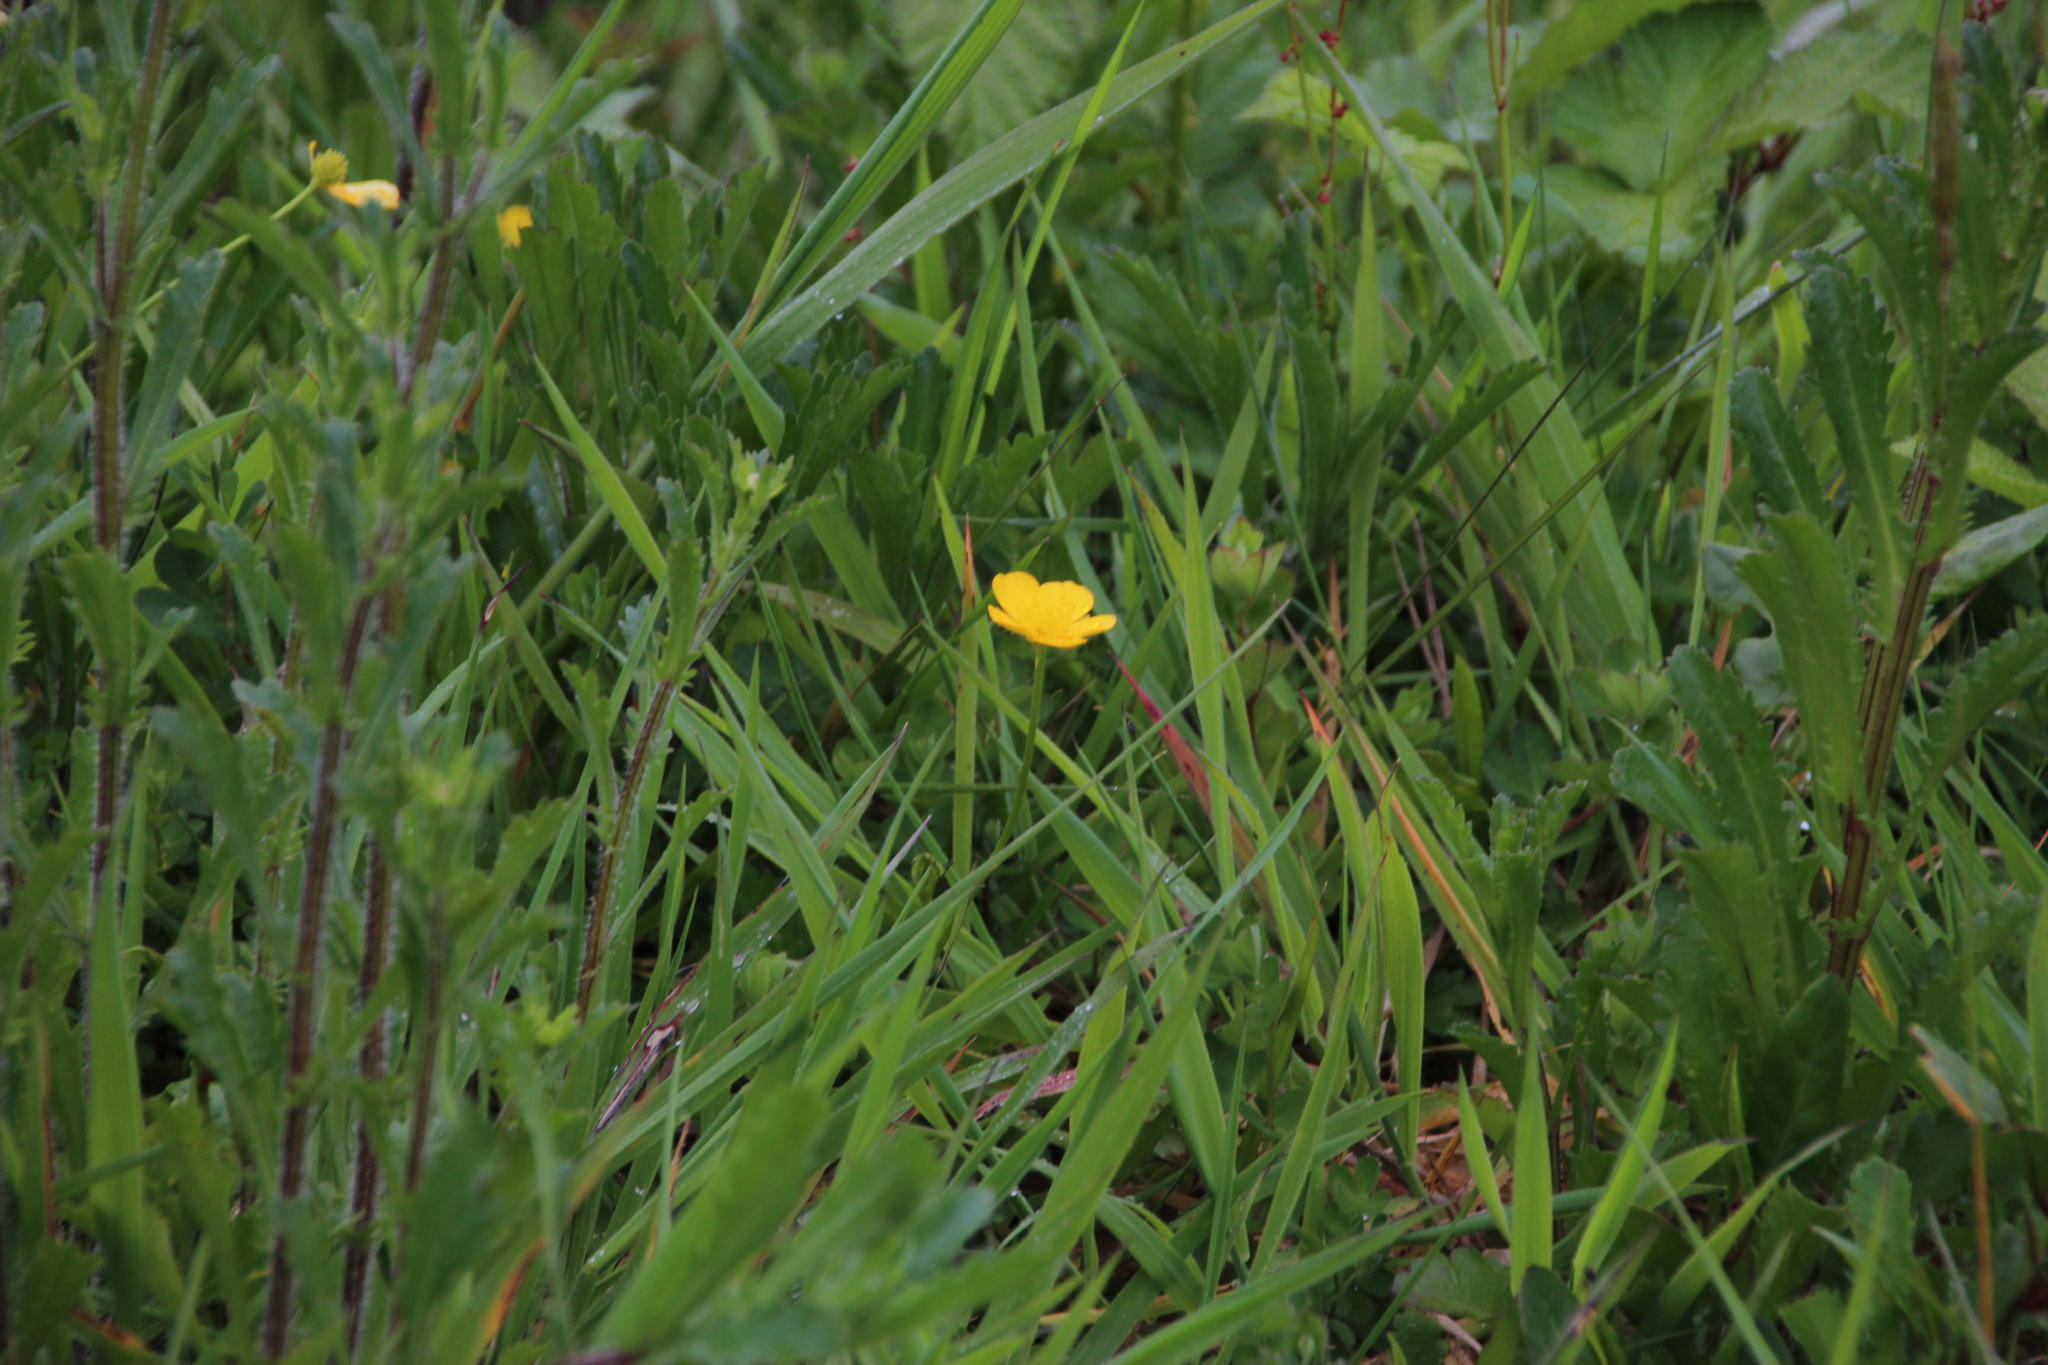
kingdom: Plantae
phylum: Tracheophyta
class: Magnoliopsida
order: Ranunculales
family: Ranunculaceae
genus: Ranunculus
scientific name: Ranunculus repens
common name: Creeping buttercup
